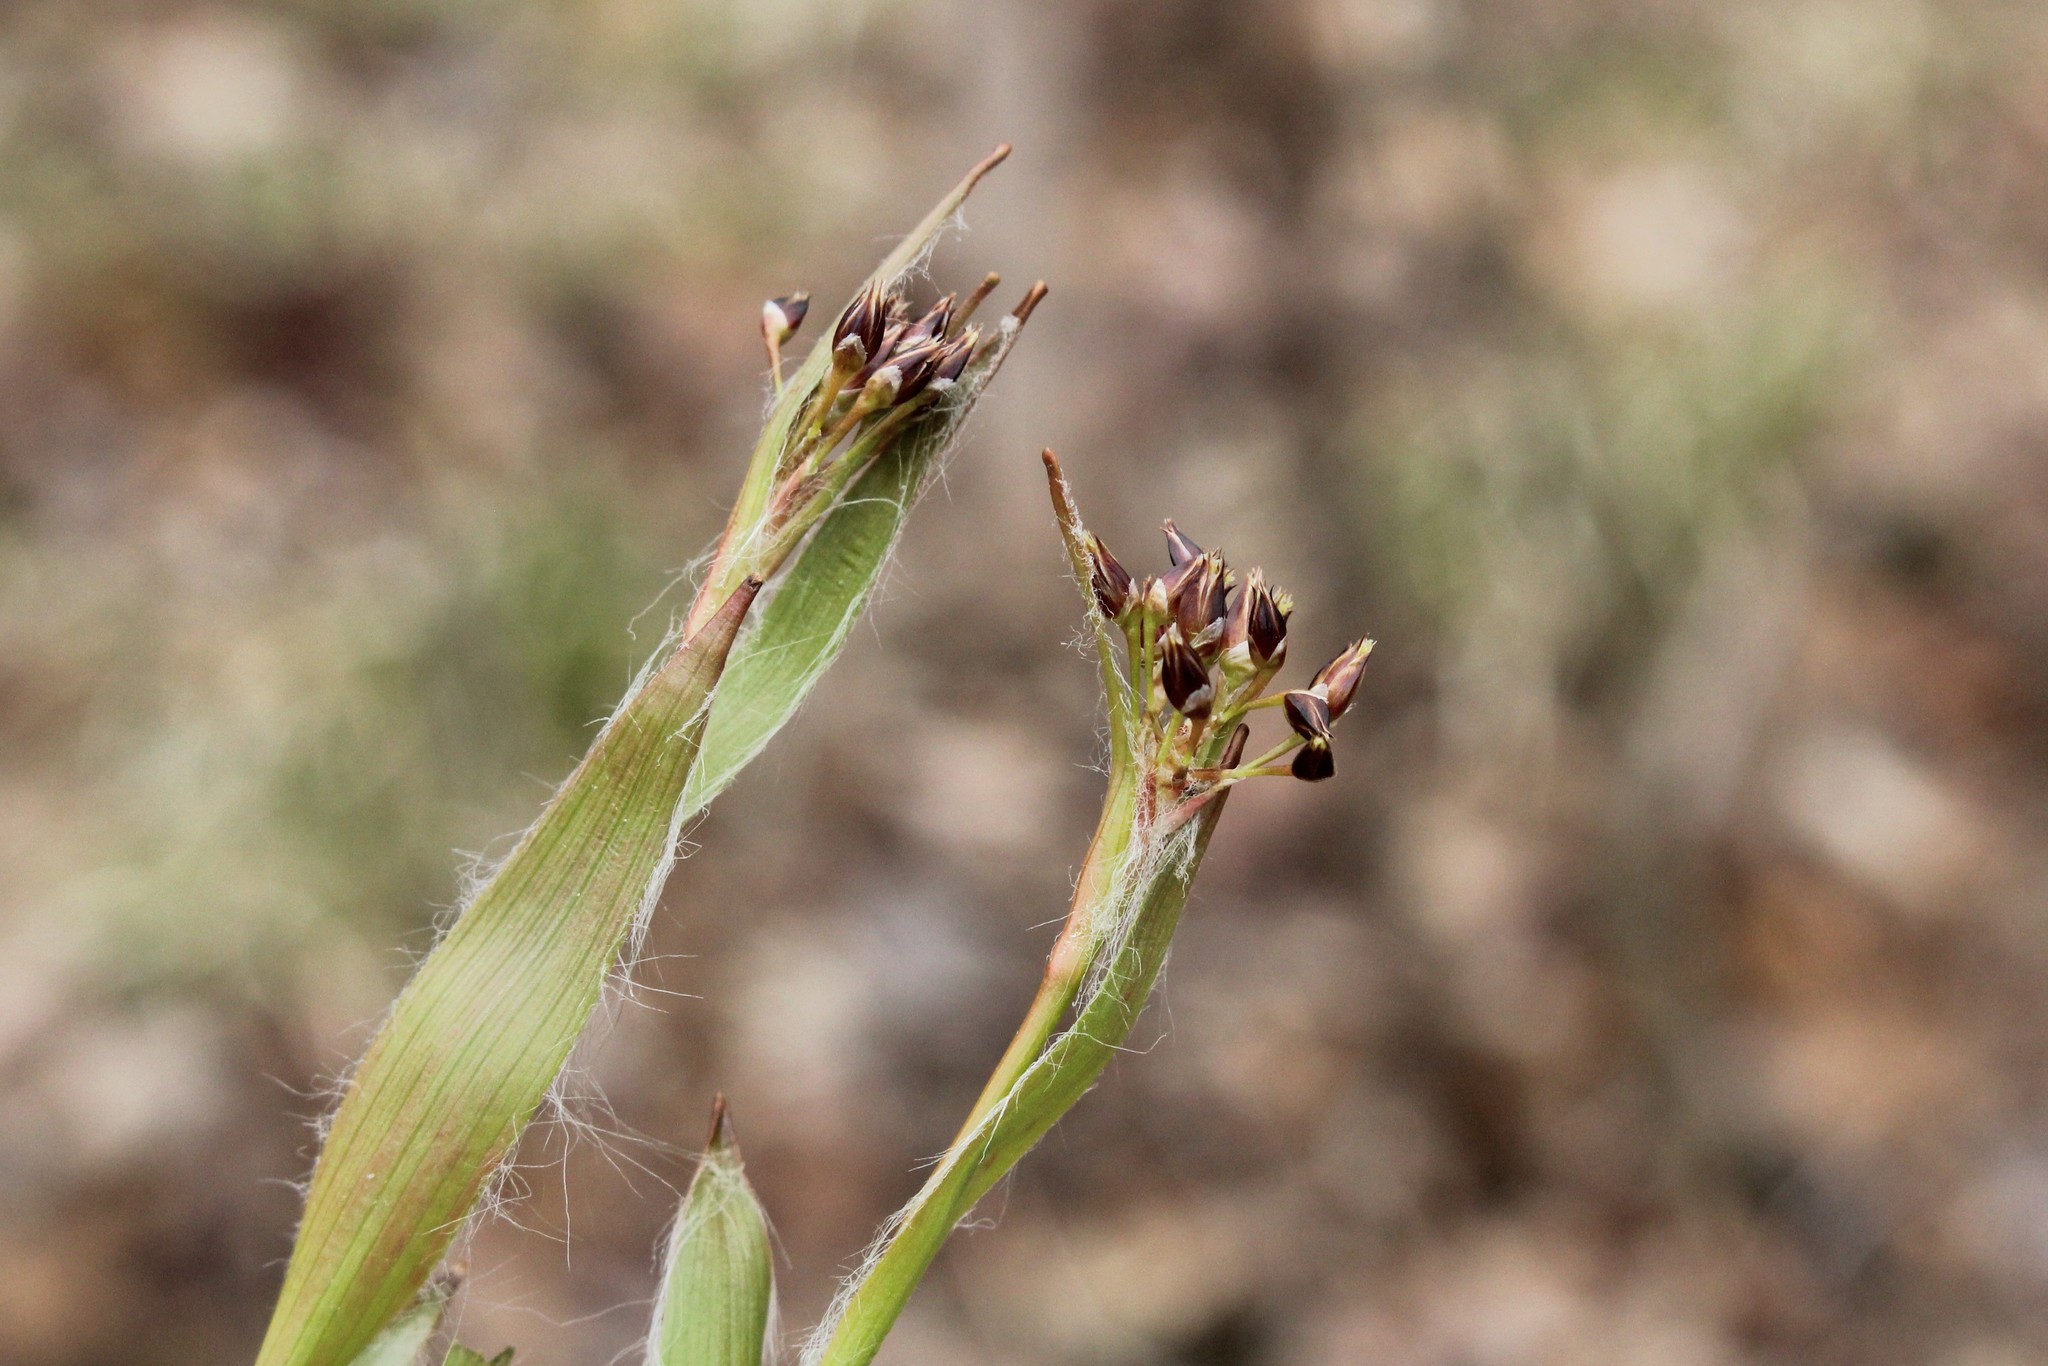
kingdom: Plantae
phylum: Tracheophyta
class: Liliopsida
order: Poales
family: Juncaceae
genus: Luzula
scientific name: Luzula acuminata
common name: Hairy woodrush
